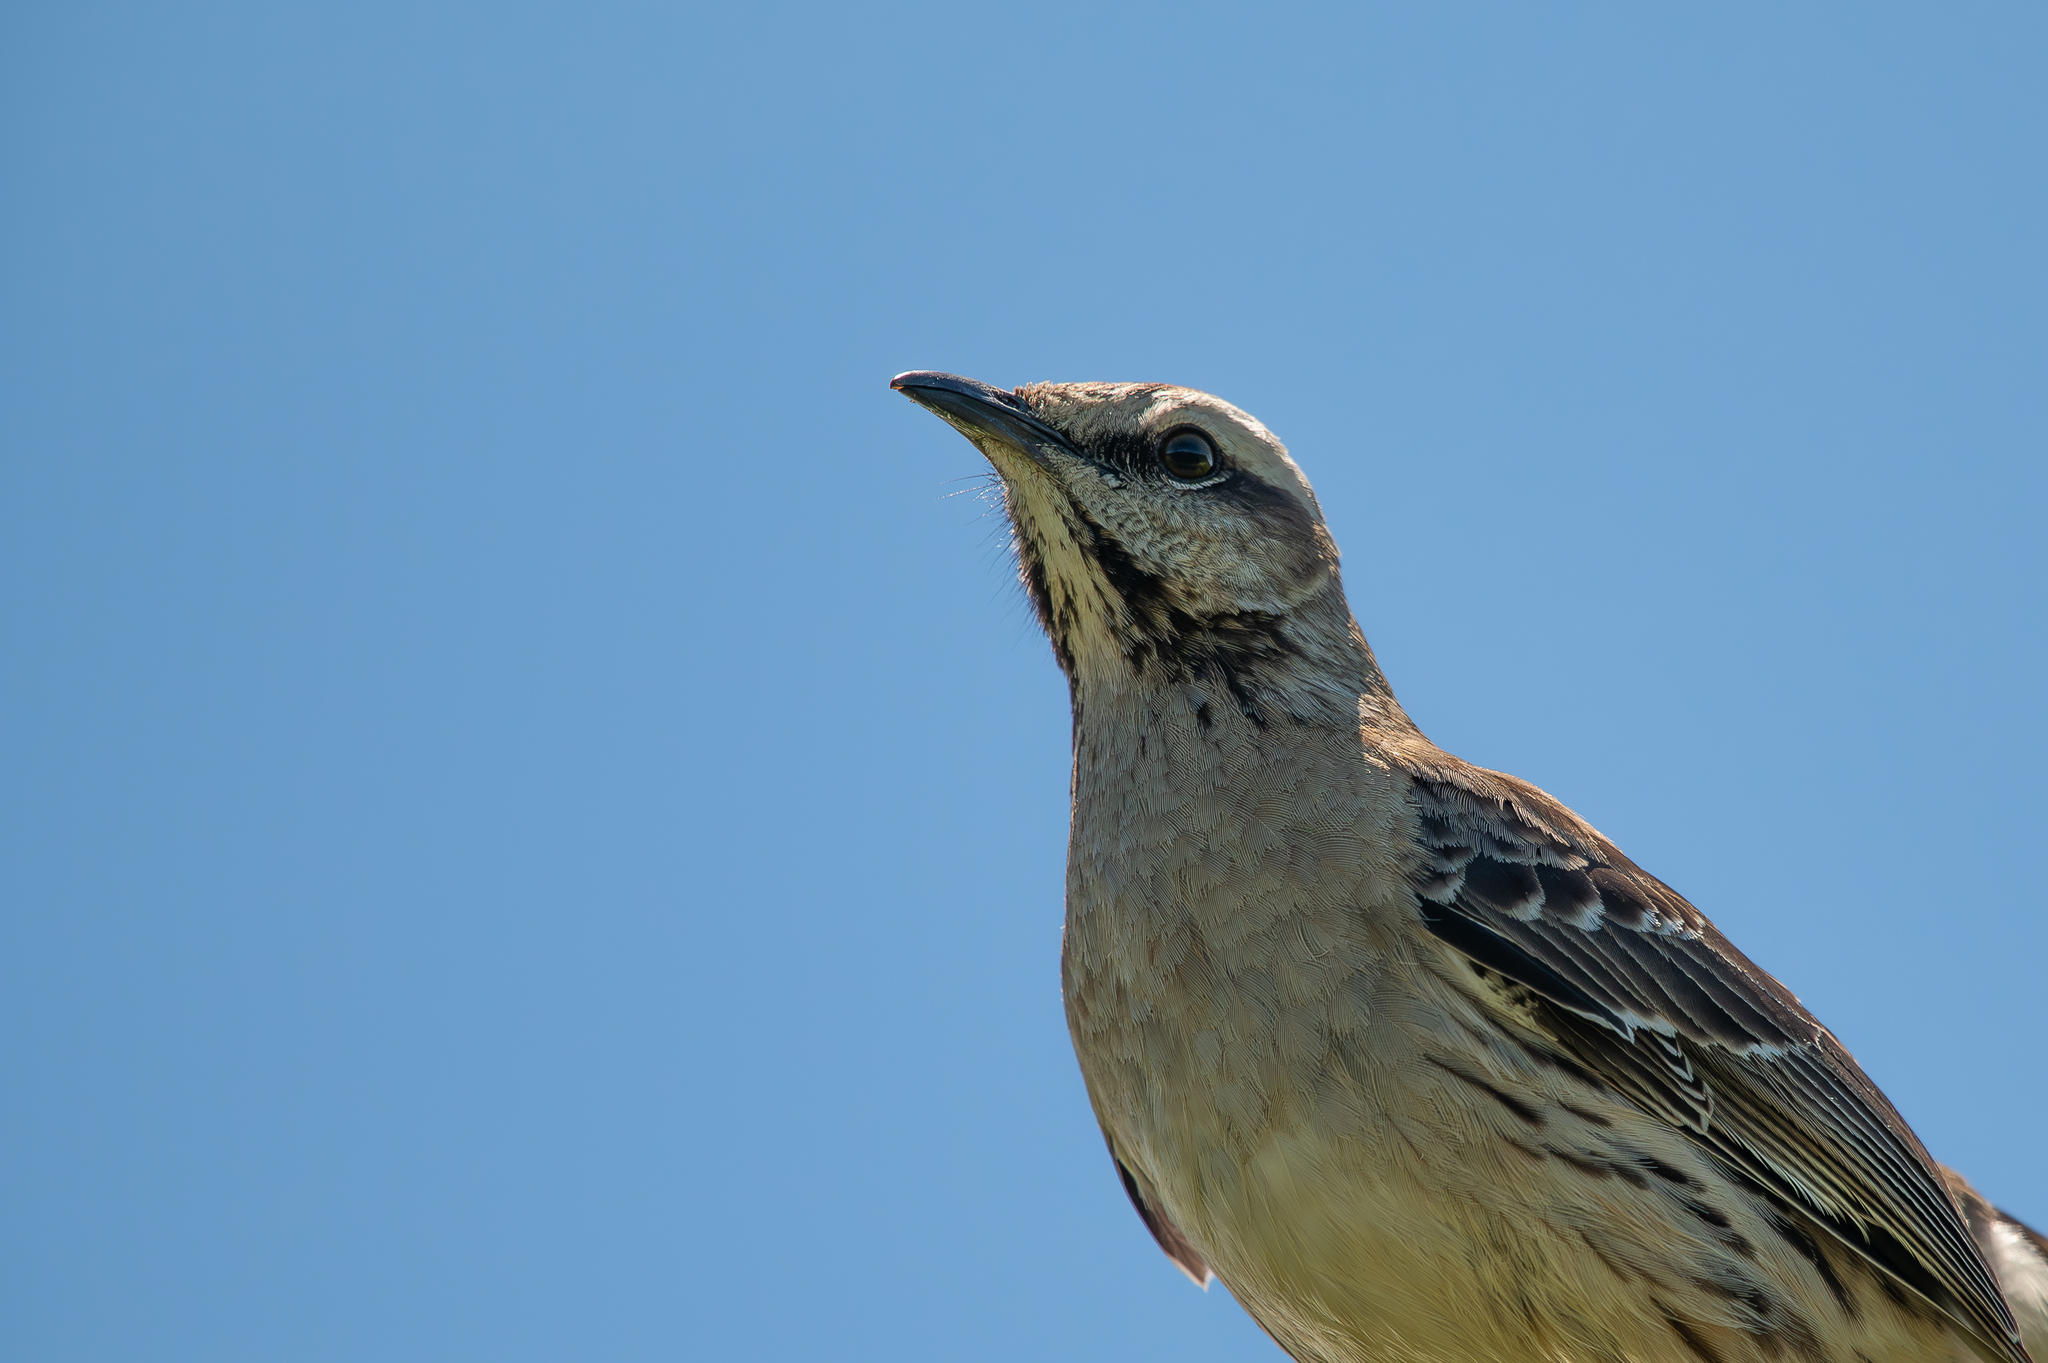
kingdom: Animalia
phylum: Chordata
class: Aves
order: Passeriformes
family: Mimidae
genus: Mimus
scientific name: Mimus thenca
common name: Chilean mockingbird
